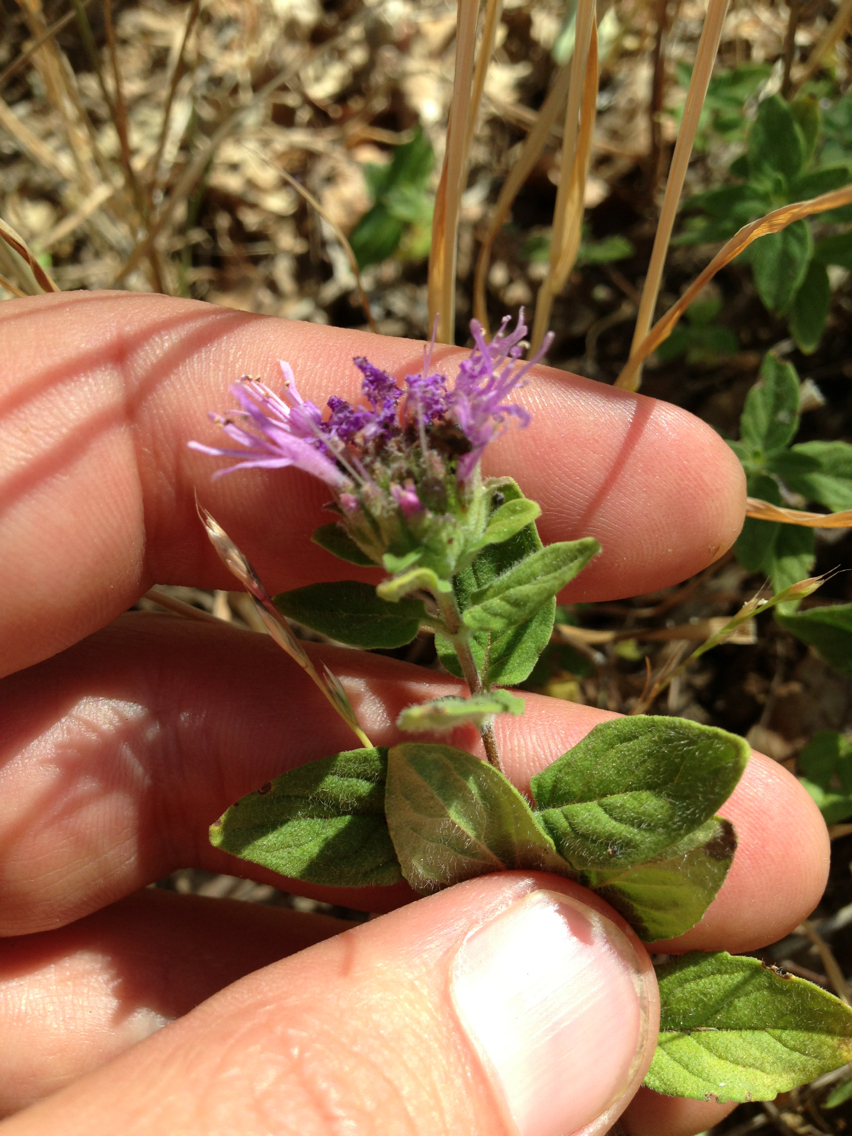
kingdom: Plantae
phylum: Tracheophyta
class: Magnoliopsida
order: Lamiales
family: Lamiaceae
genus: Monardella
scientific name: Monardella odoratissima
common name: Pacific monardella
